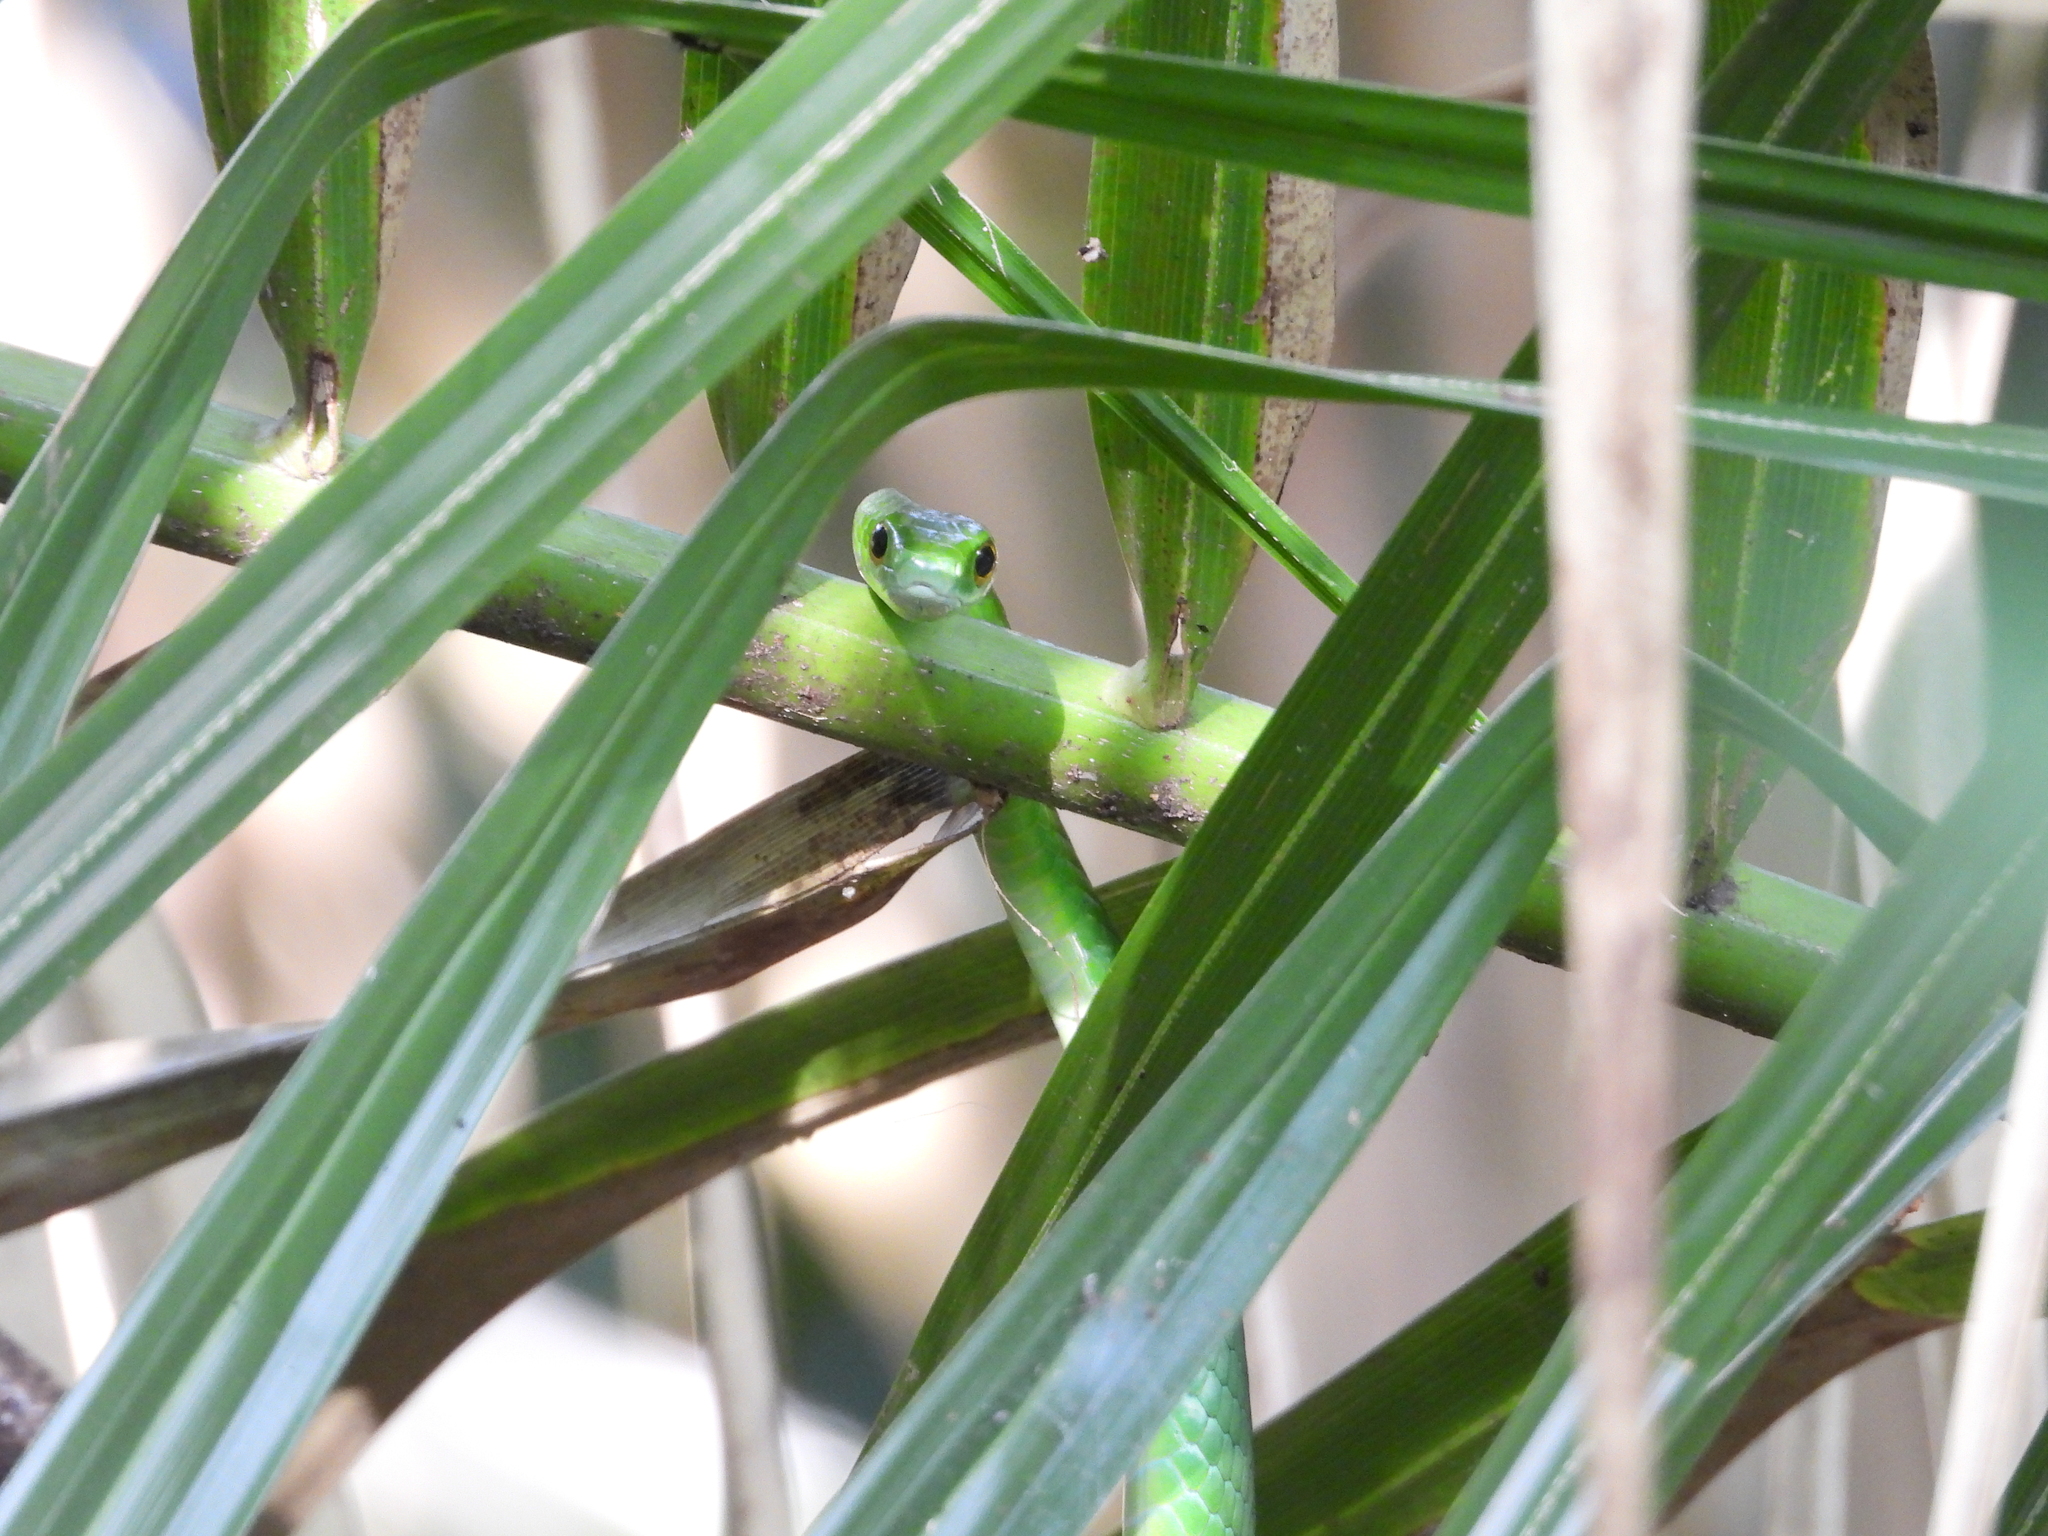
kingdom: Animalia
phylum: Chordata
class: Squamata
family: Colubridae
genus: Philothamnus
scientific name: Philothamnus angolensis
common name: Angola green snake
